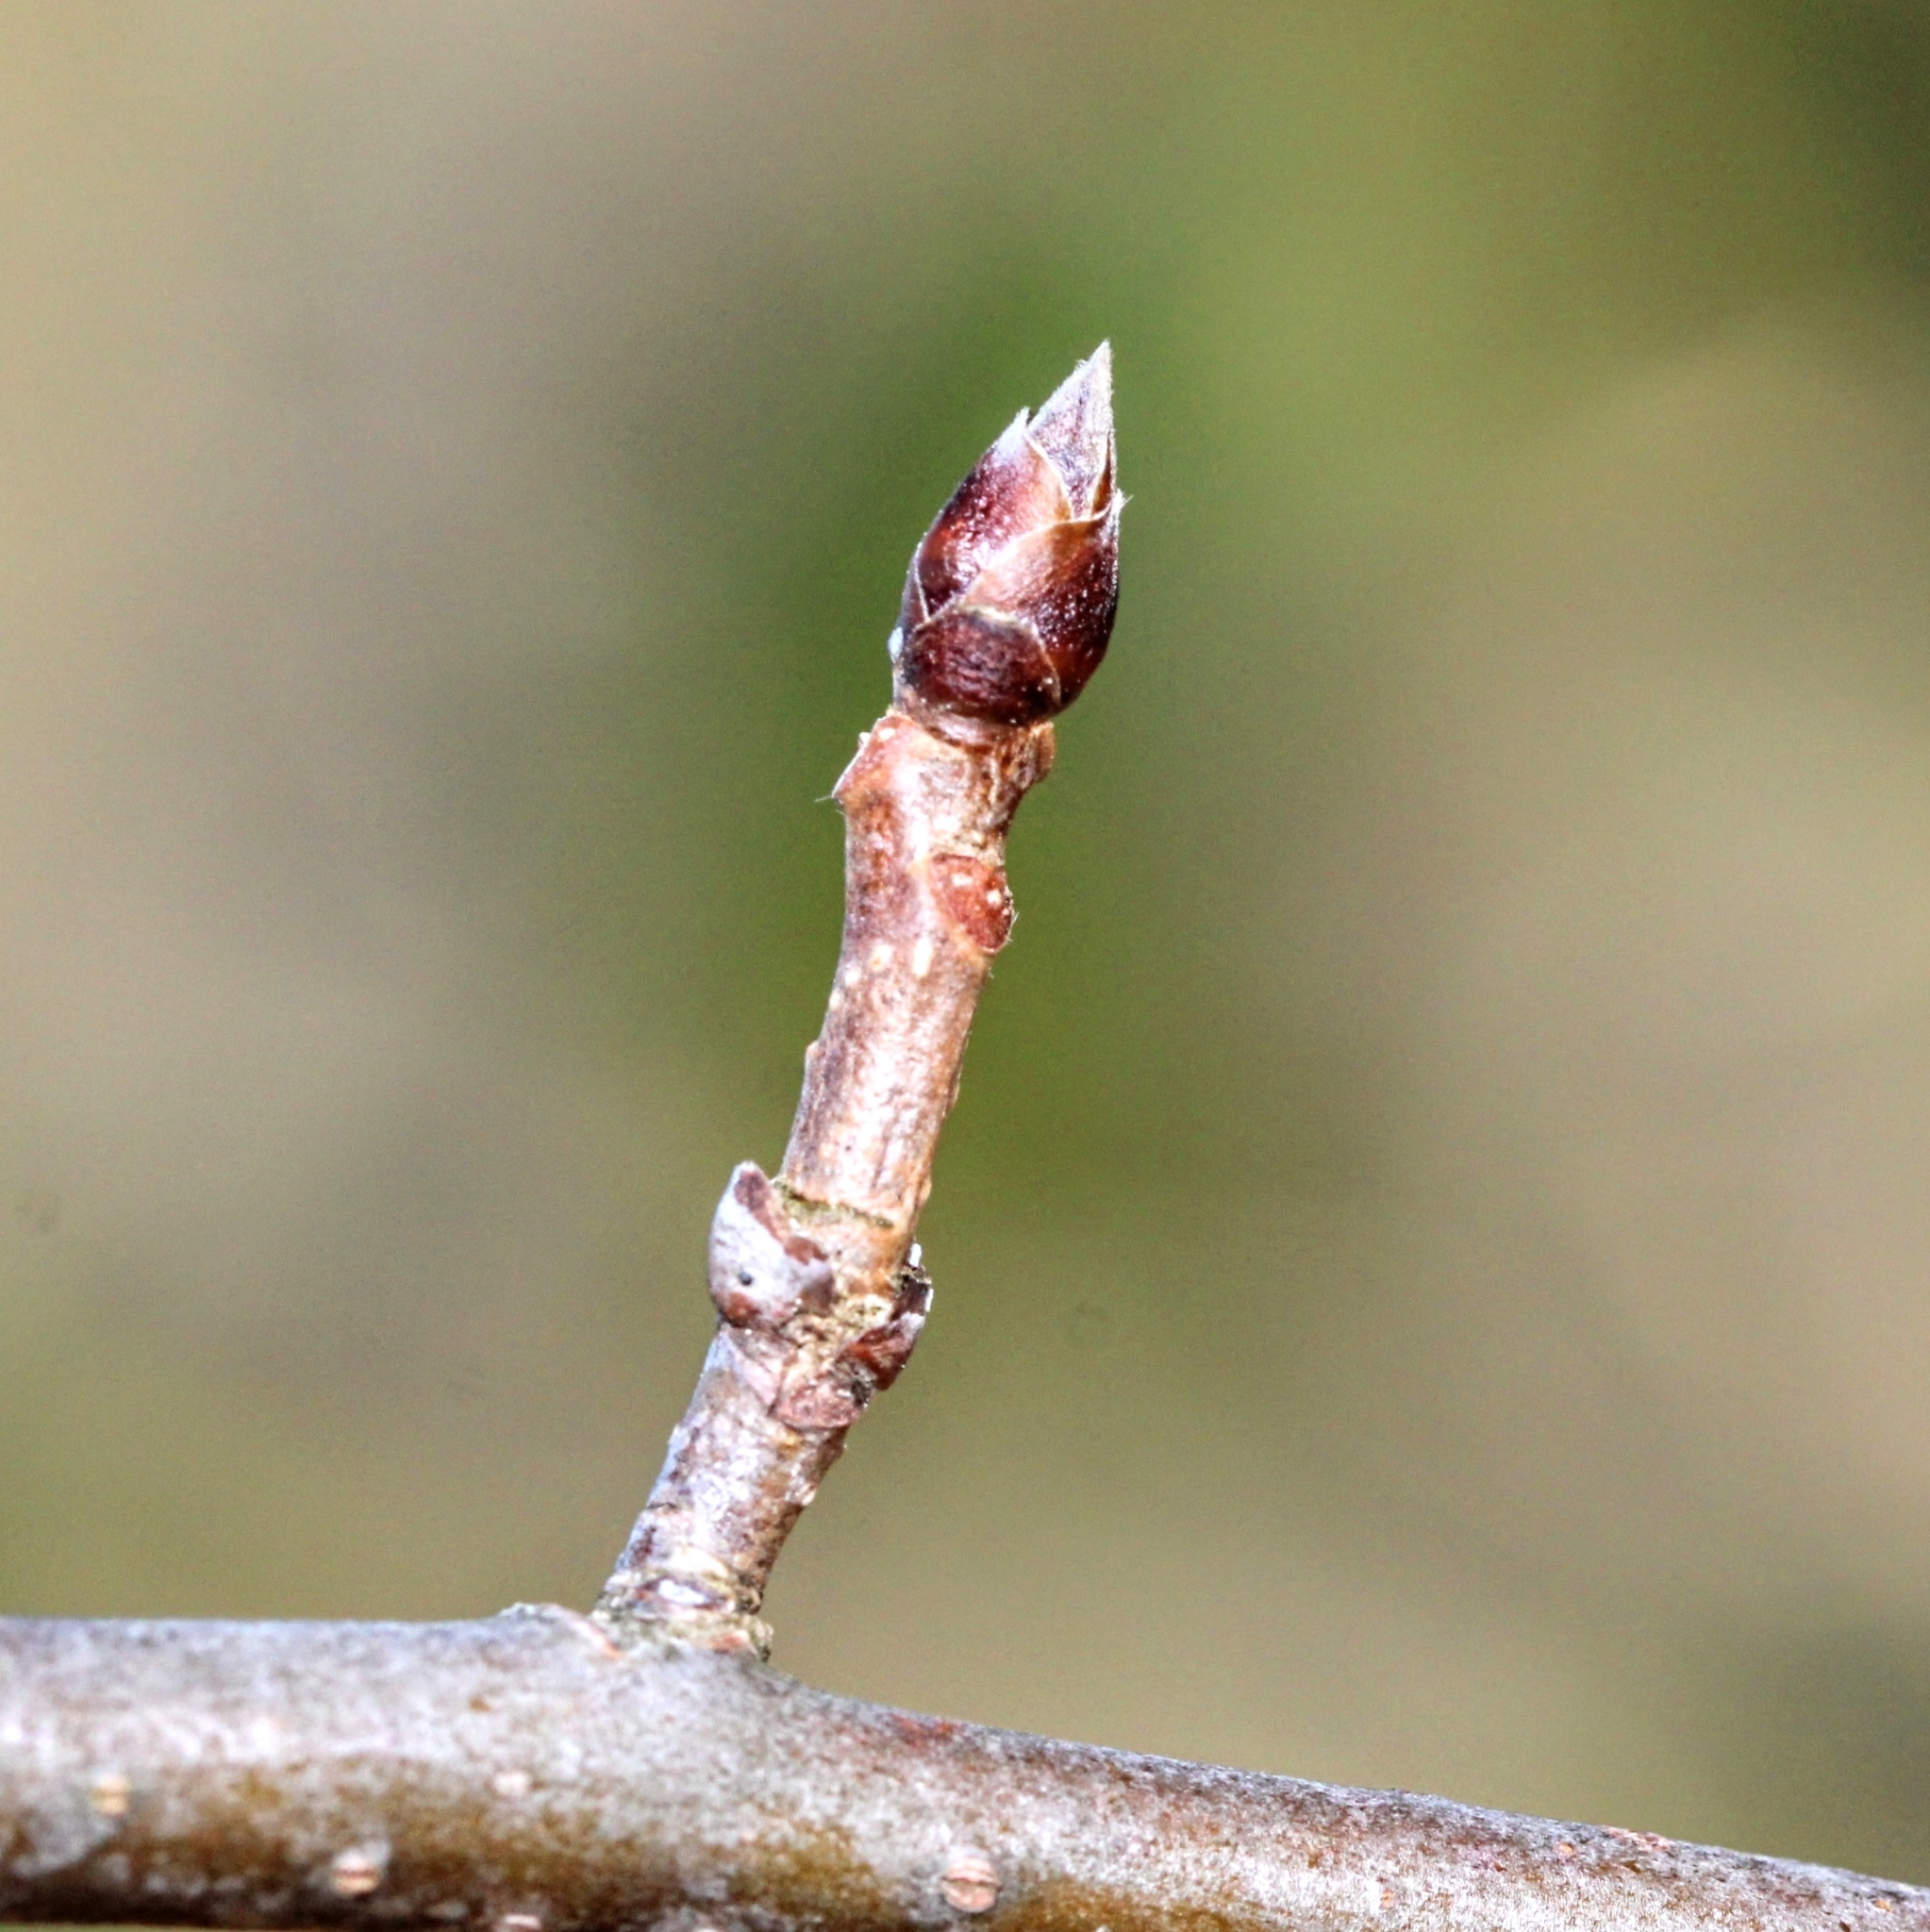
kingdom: Plantae
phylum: Tracheophyta
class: Magnoliopsida
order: Cornales
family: Nyssaceae
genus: Nyssa
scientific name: Nyssa sylvatica
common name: Black tupelo
